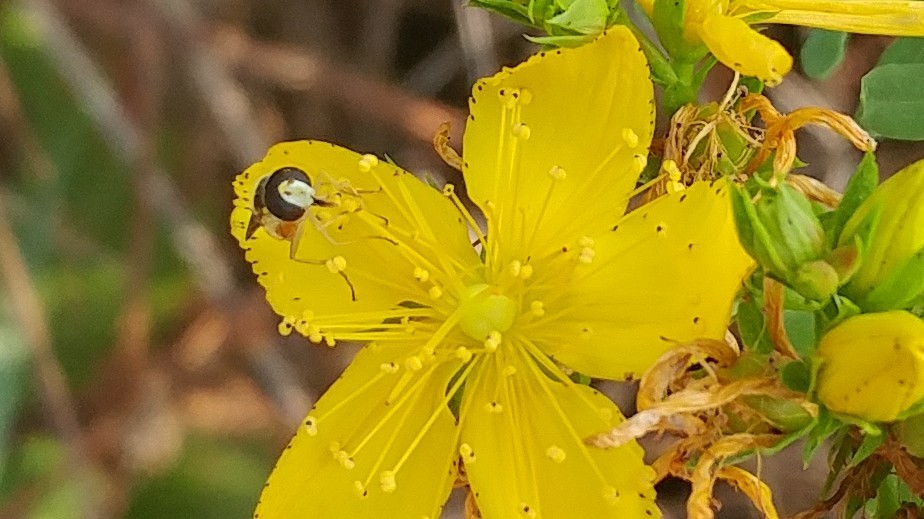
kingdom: Animalia
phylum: Arthropoda
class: Insecta
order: Diptera
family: Syrphidae
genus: Sphaerophoria
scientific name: Sphaerophoria sulphuripes
